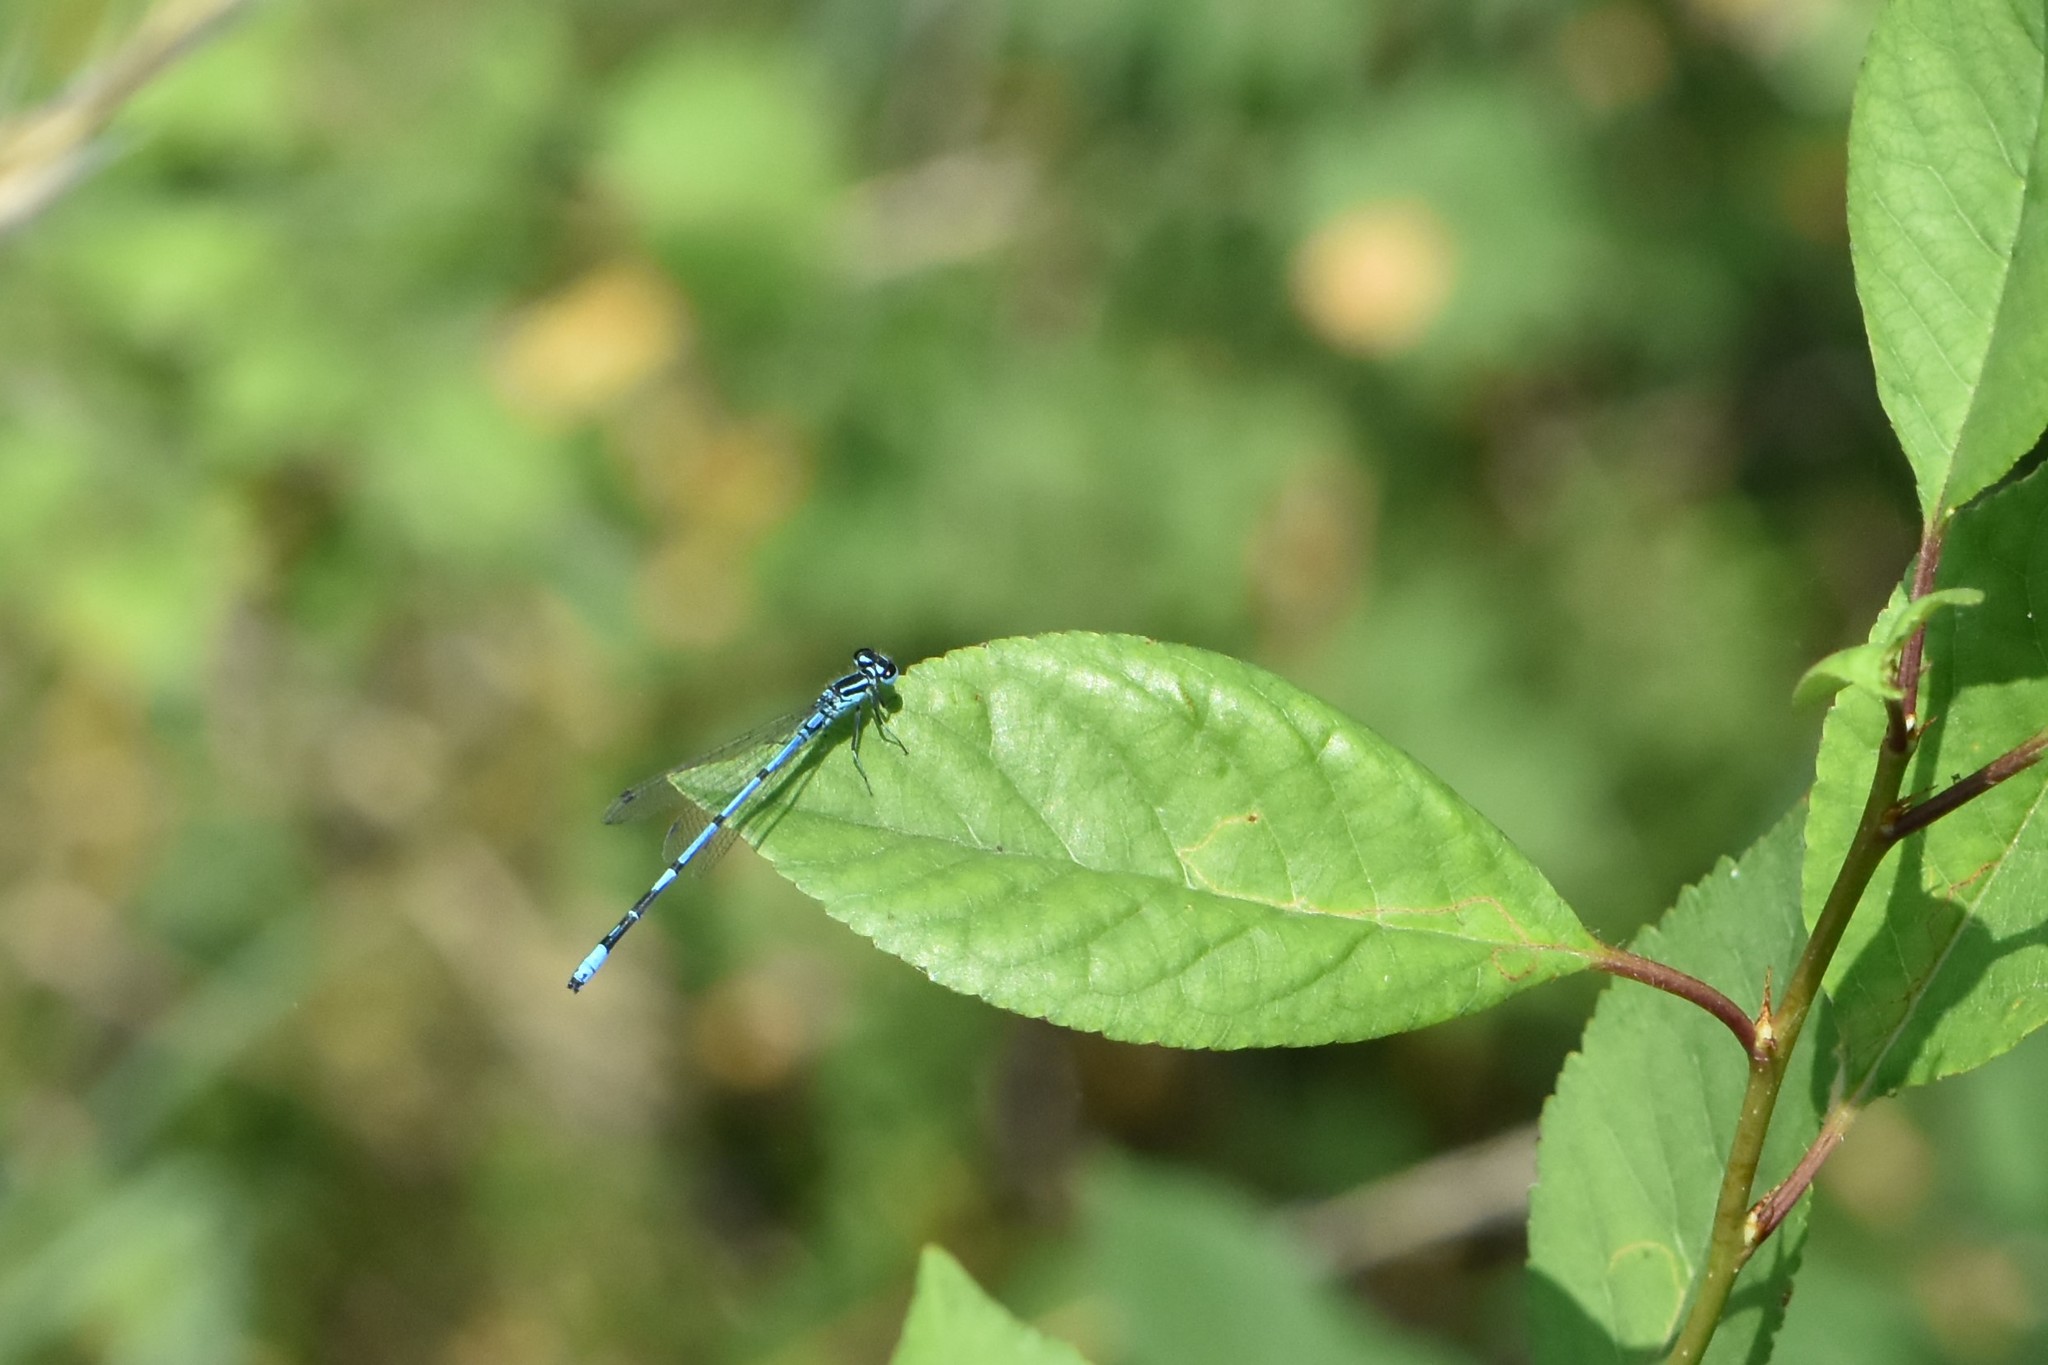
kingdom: Animalia
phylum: Arthropoda
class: Insecta
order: Odonata
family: Coenagrionidae
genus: Coenagrion
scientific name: Coenagrion puella
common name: Azure damselfly
